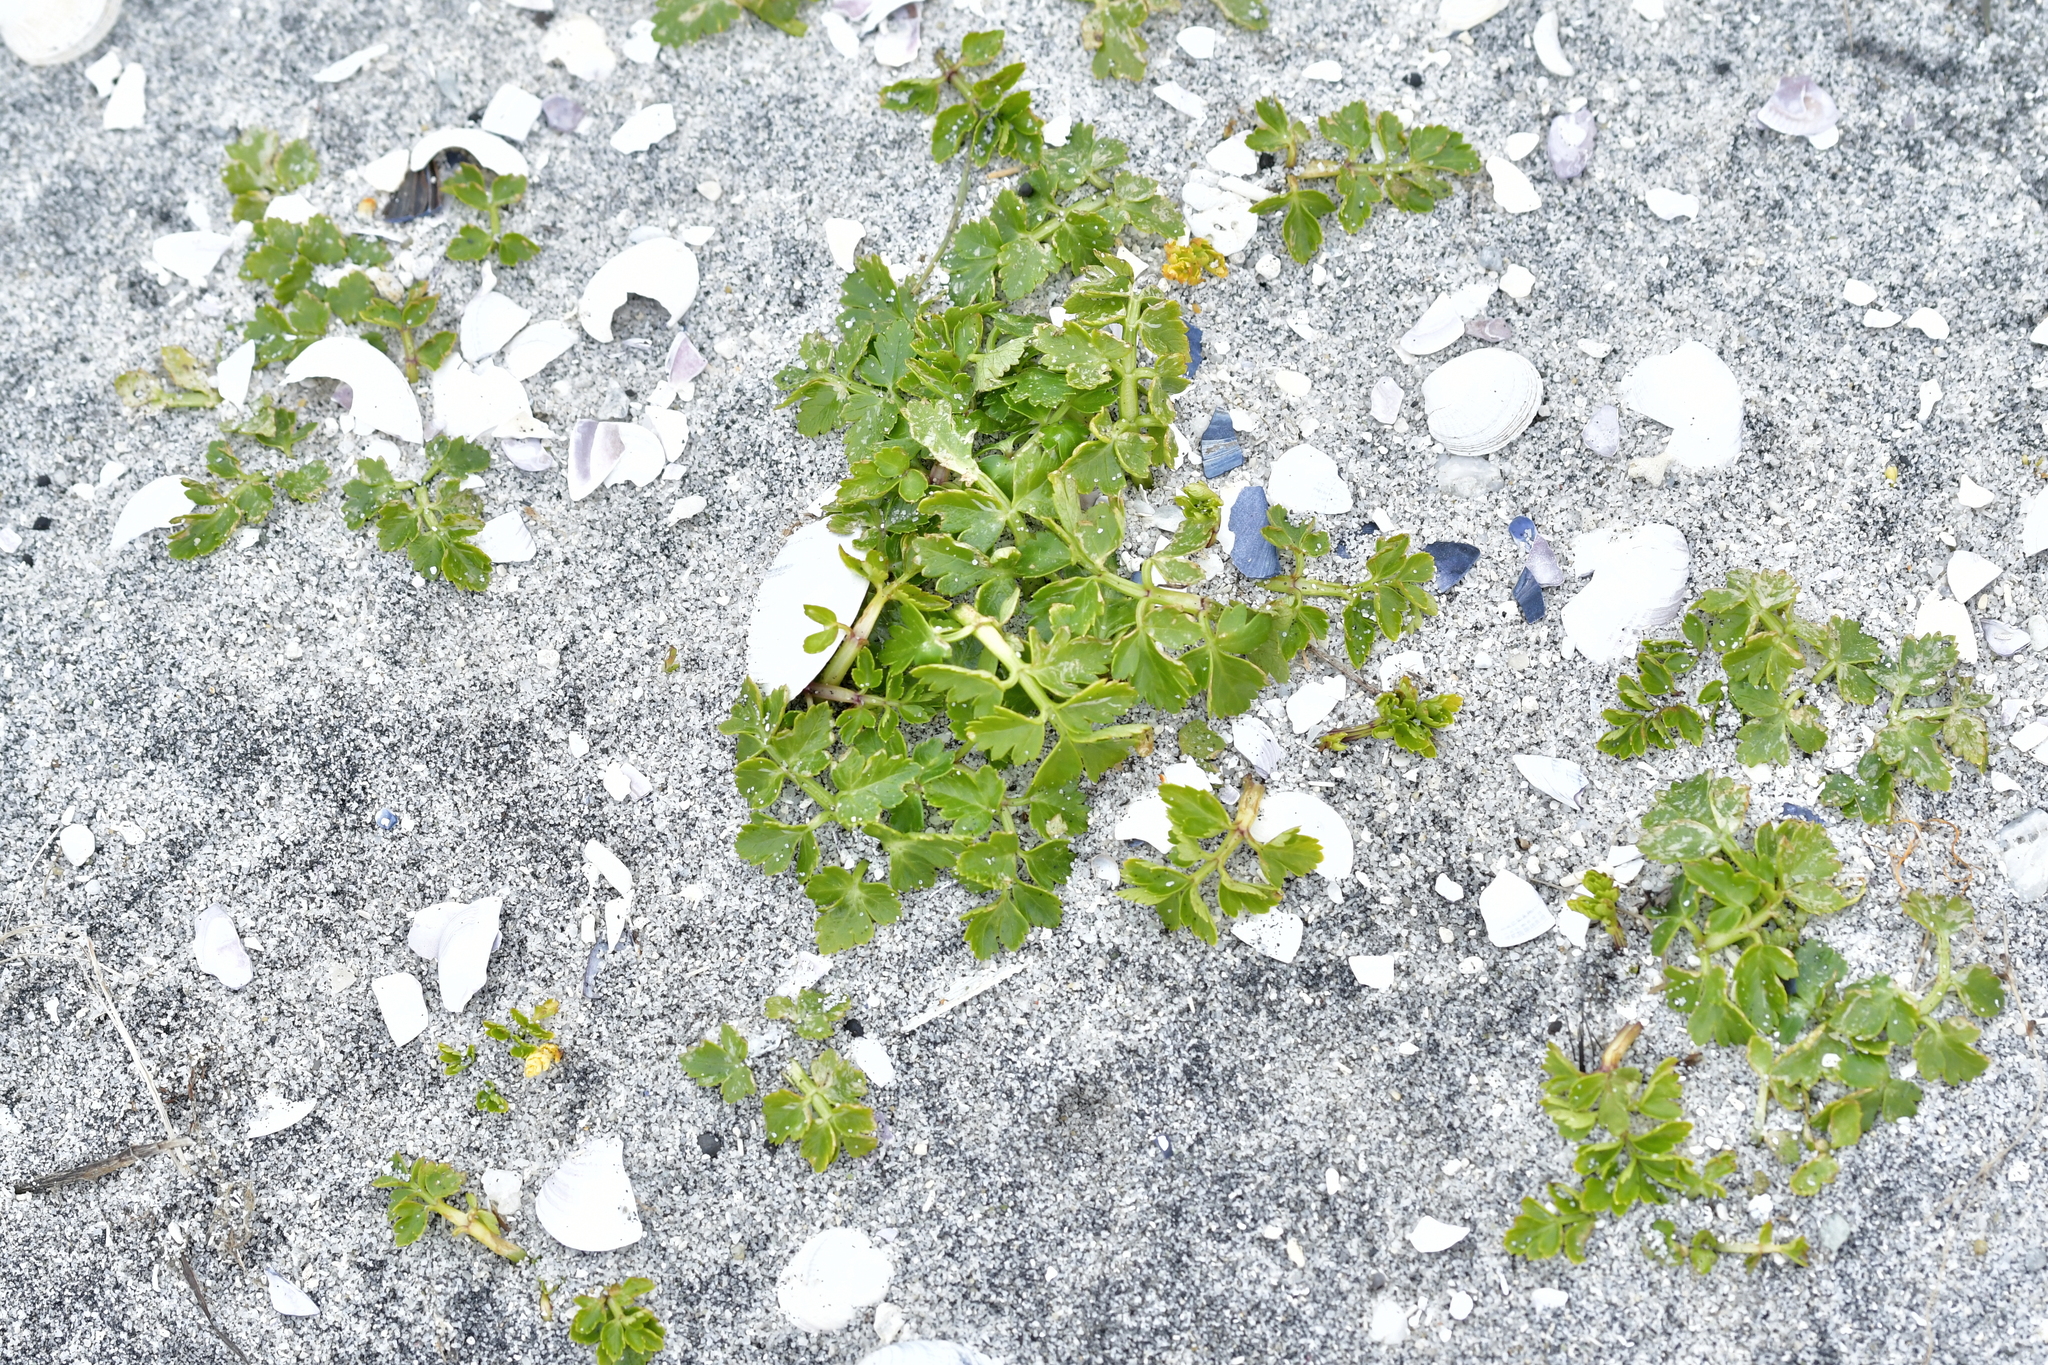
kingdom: Plantae
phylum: Tracheophyta
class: Magnoliopsida
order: Apiales
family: Apiaceae
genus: Apium
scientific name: Apium prostratum
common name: Prostrate marshwort
